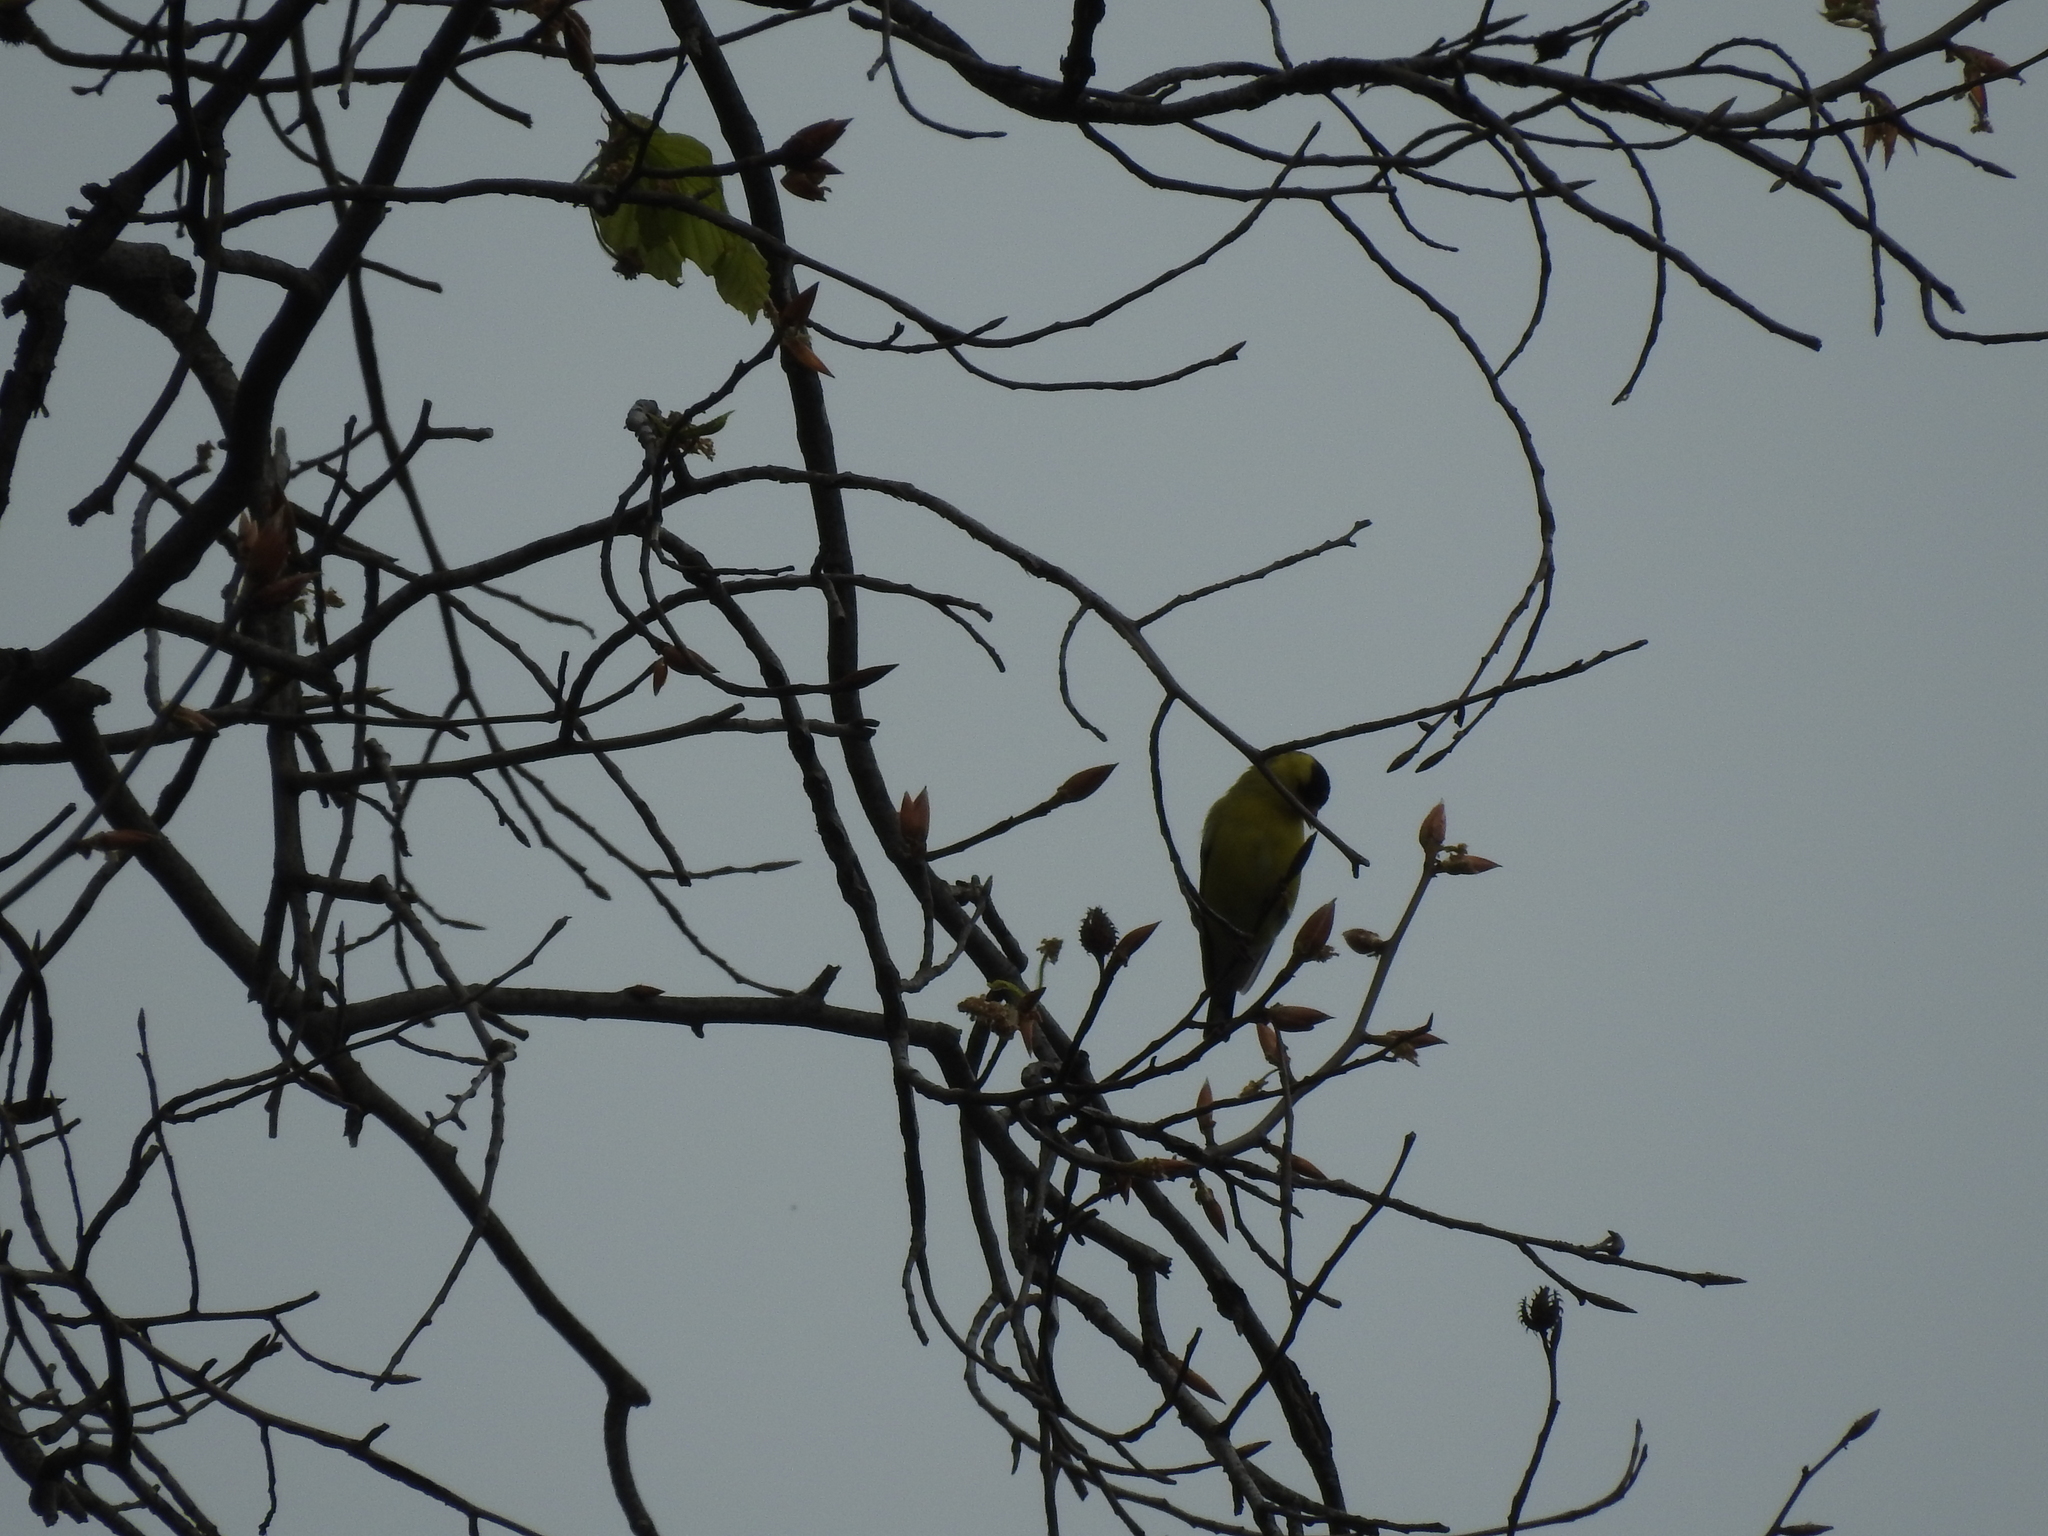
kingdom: Animalia
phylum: Chordata
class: Aves
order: Passeriformes
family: Fringillidae
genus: Spinus
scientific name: Spinus tristis
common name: American goldfinch
